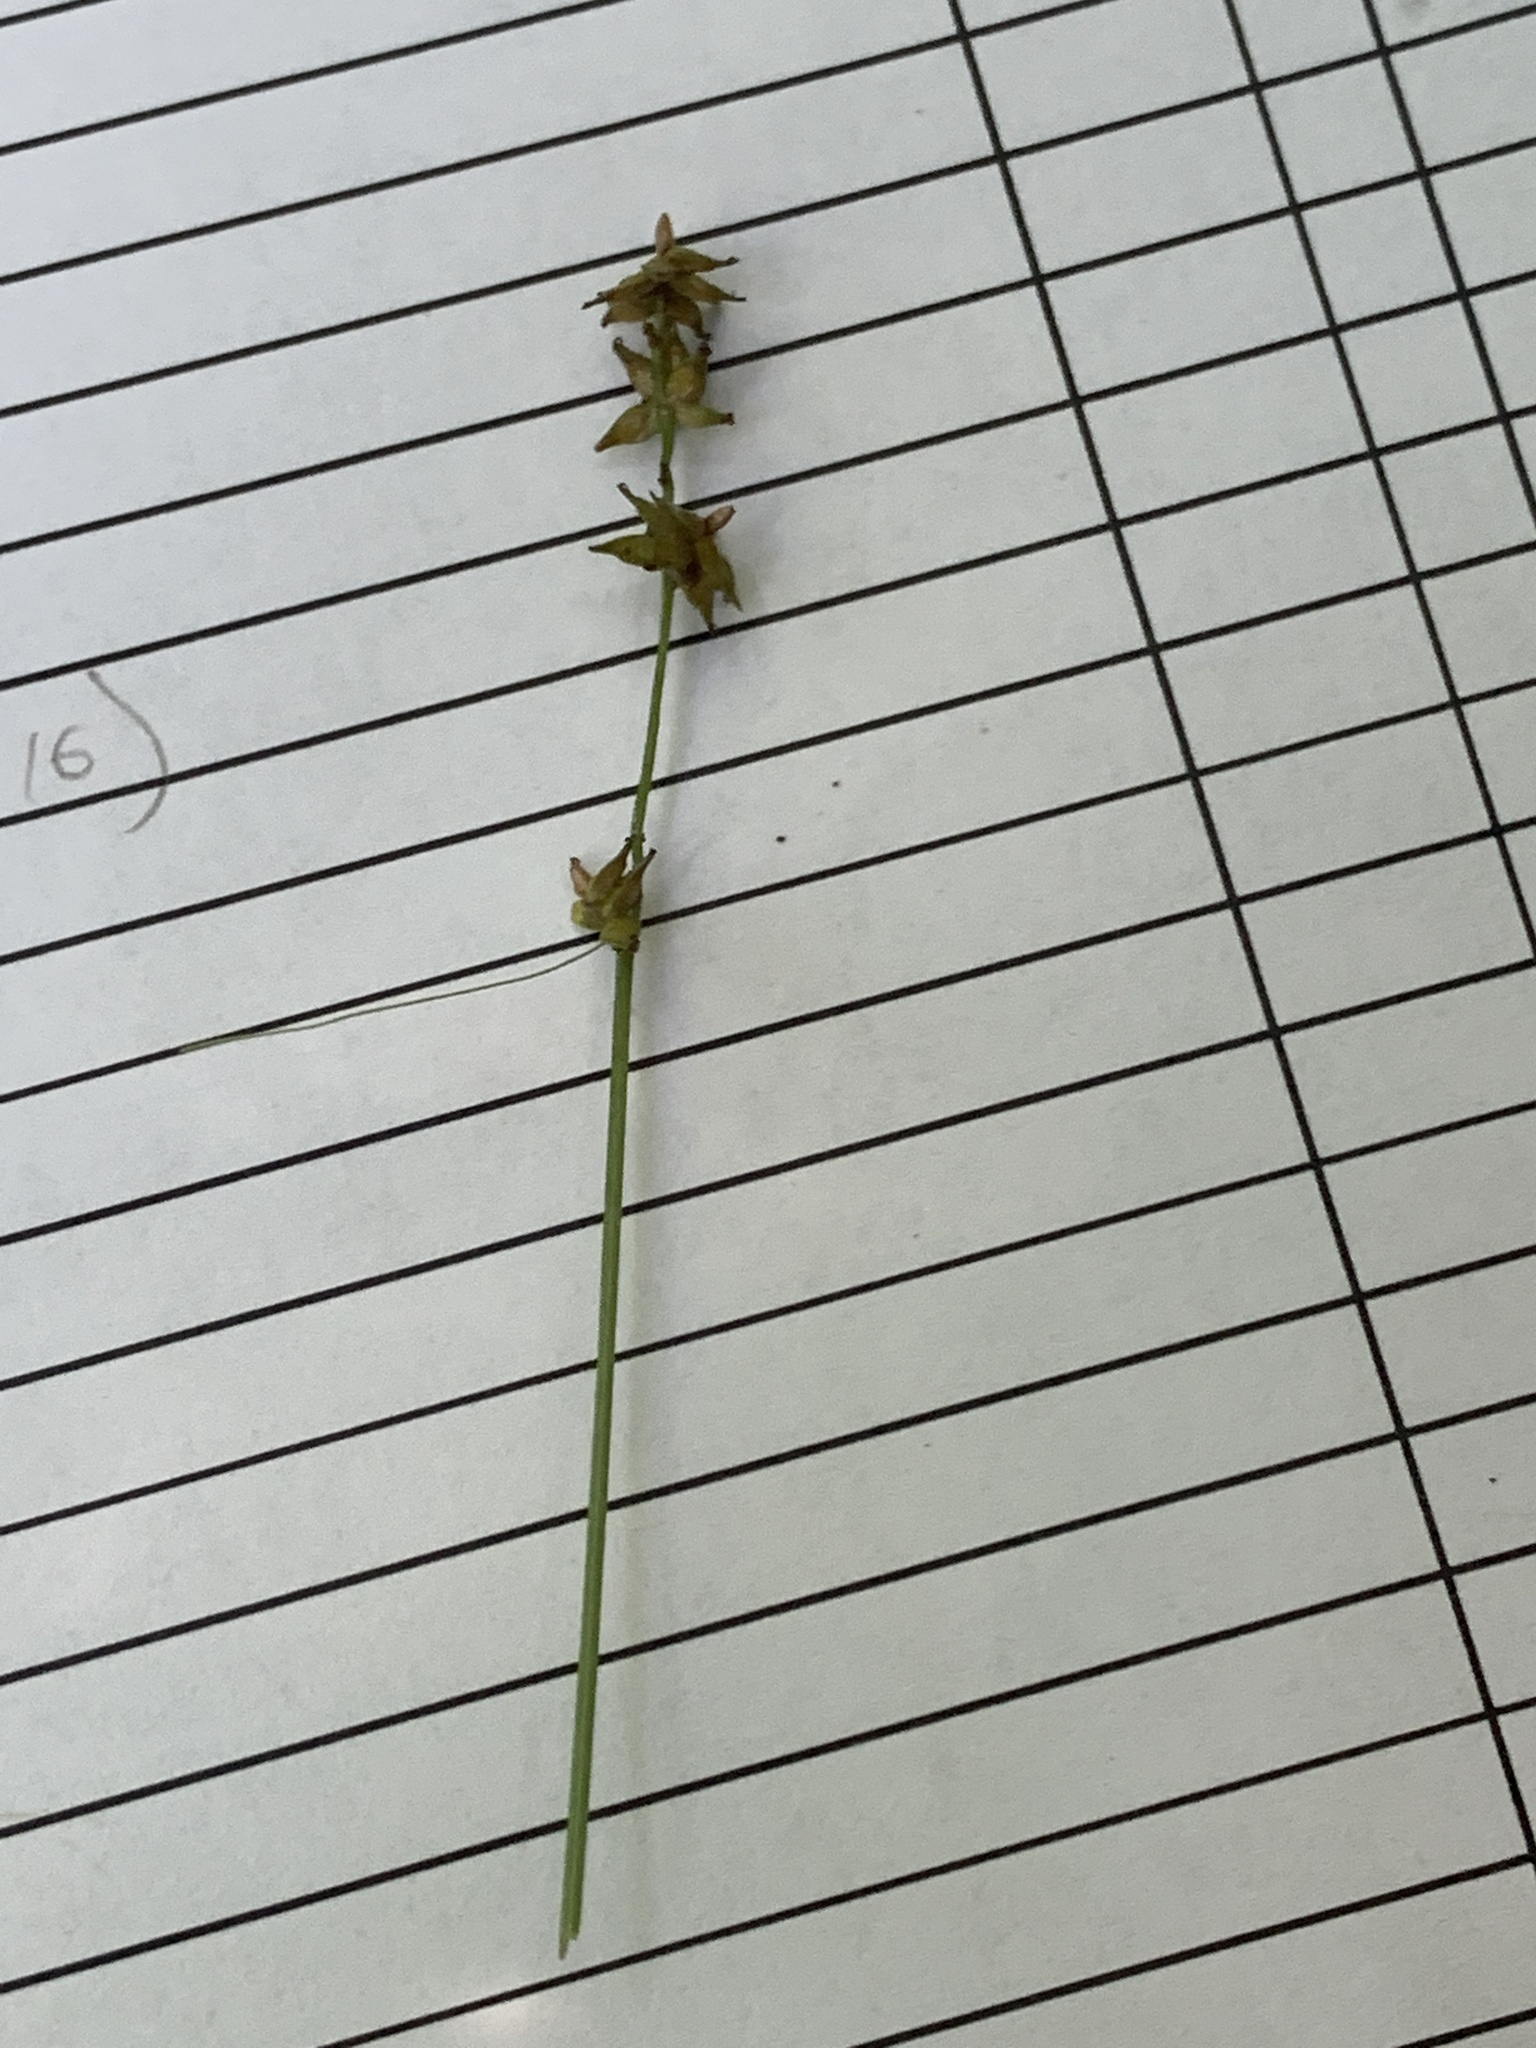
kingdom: Plantae
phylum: Tracheophyta
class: Liliopsida
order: Poales
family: Cyperaceae
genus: Carex
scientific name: Carex interior
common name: Inland sedge
